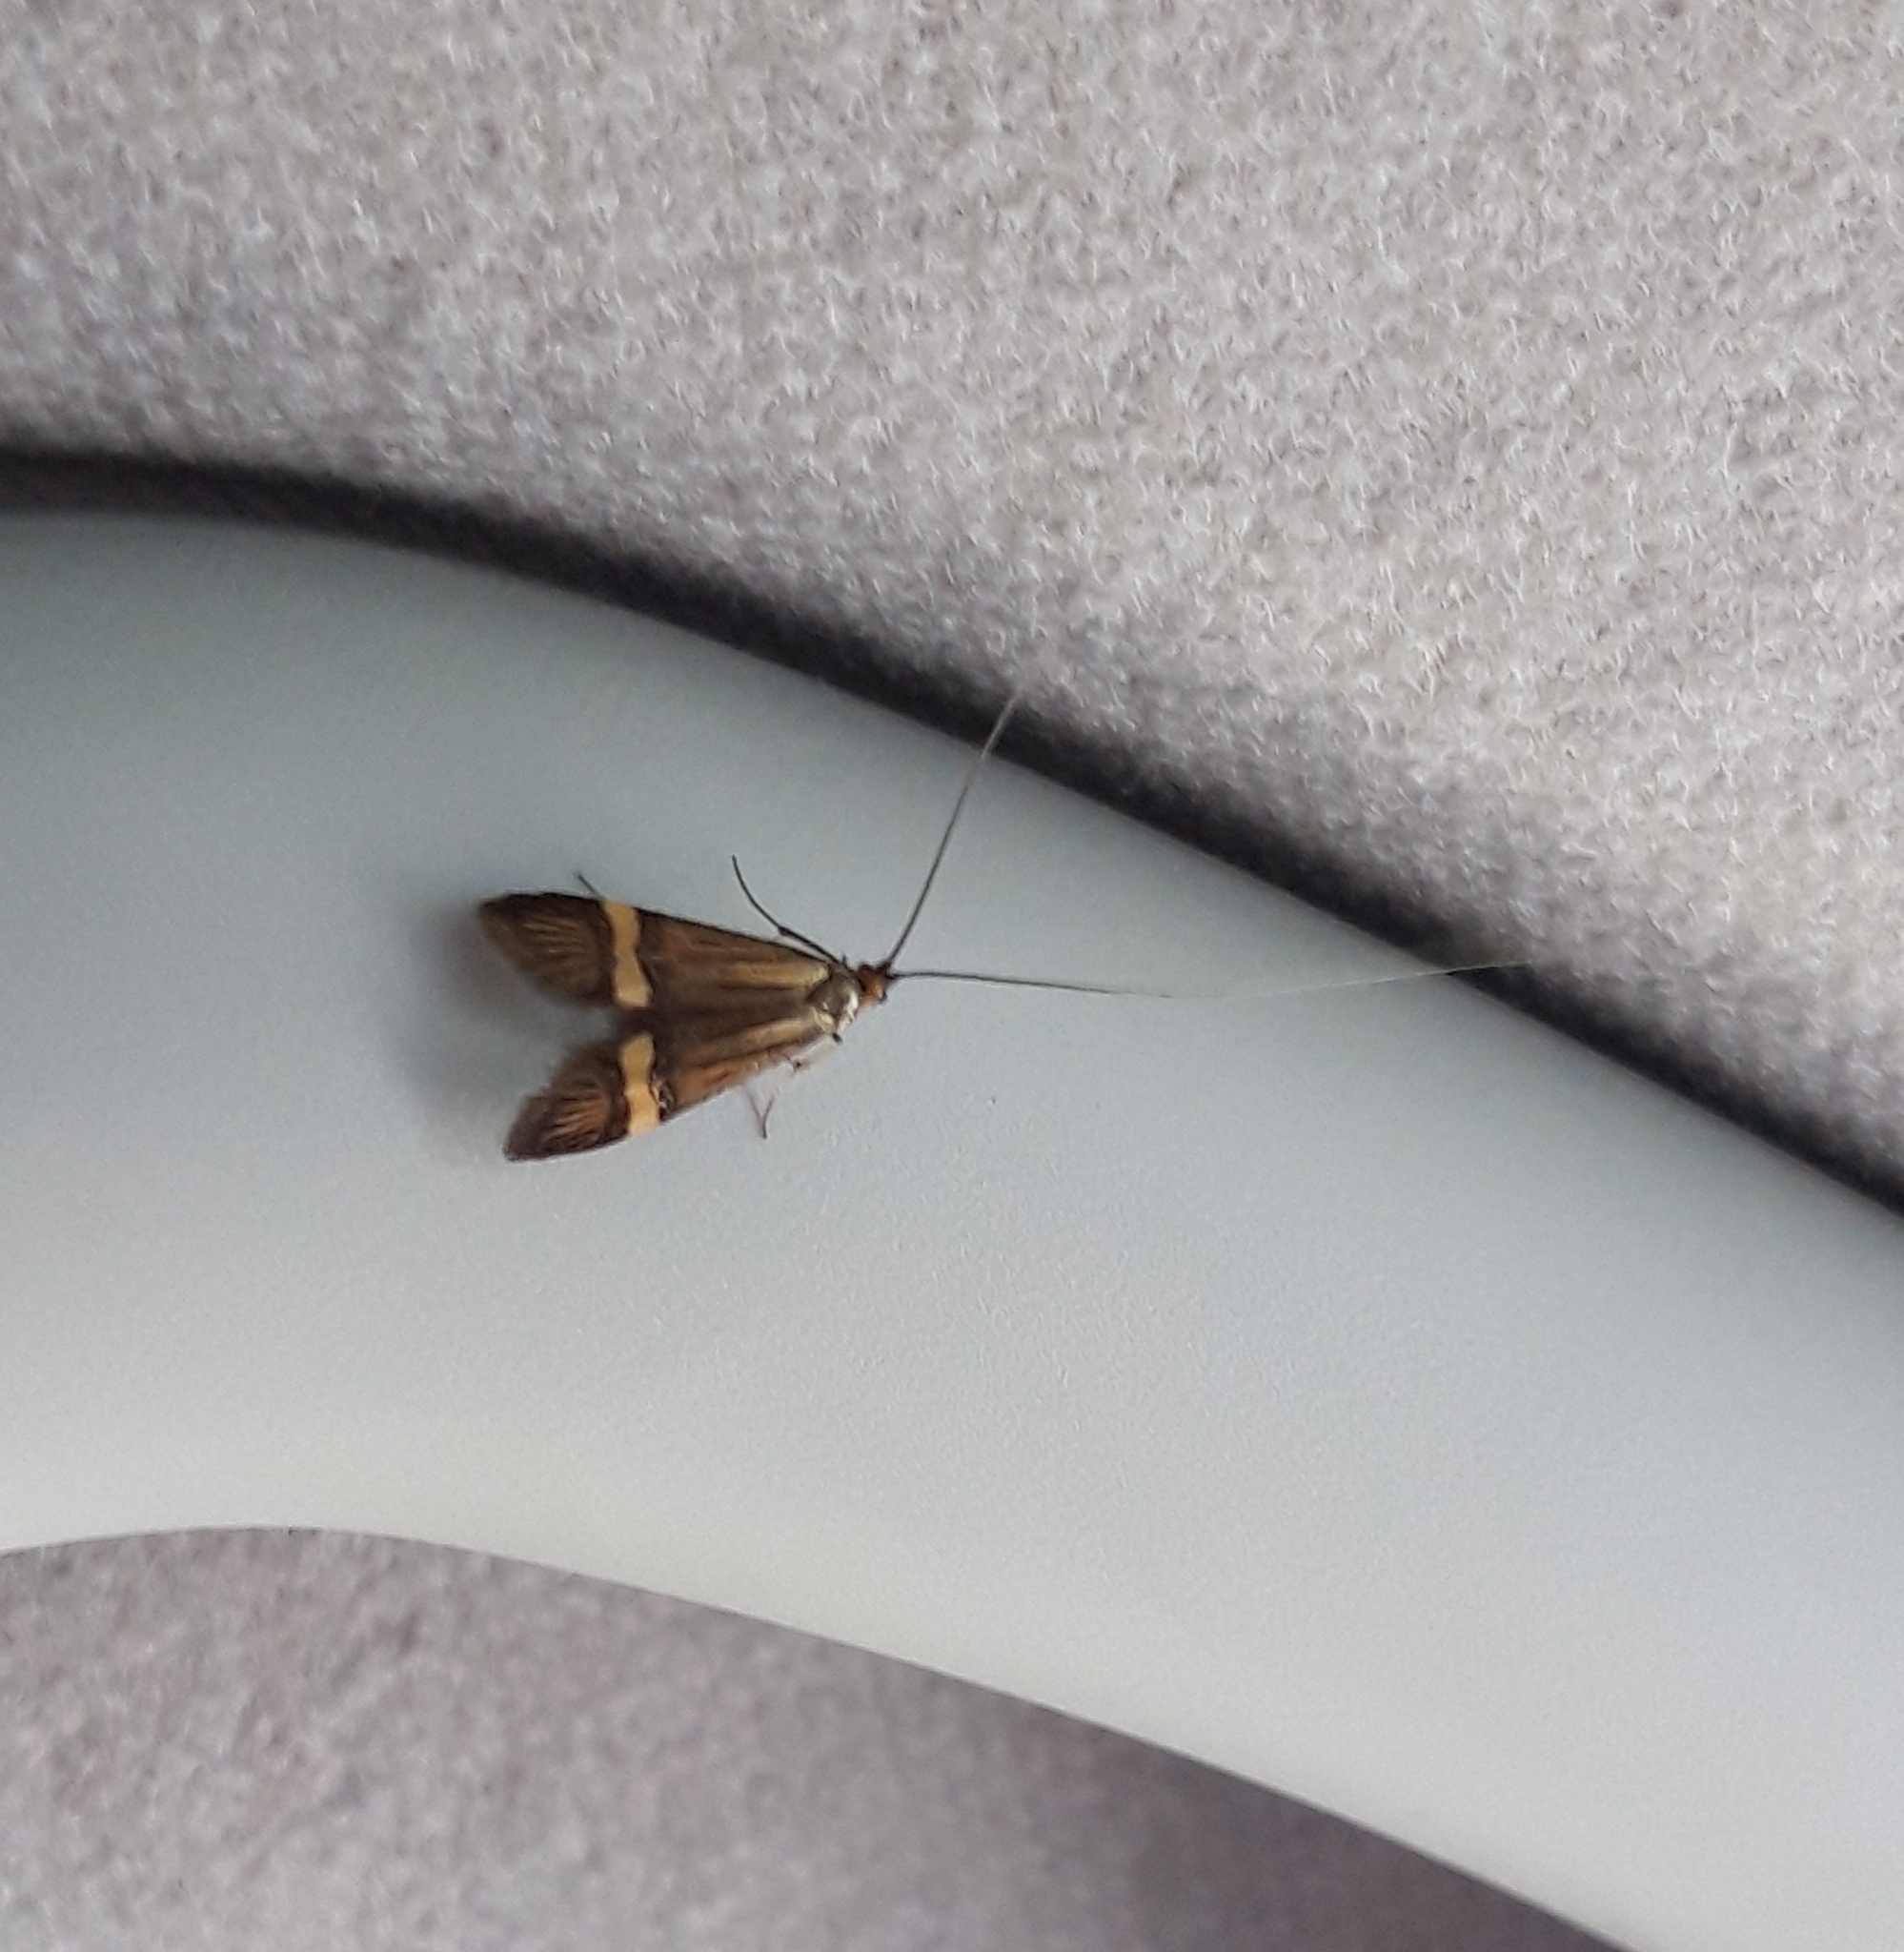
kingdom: Animalia
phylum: Arthropoda
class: Insecta
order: Lepidoptera
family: Adelidae
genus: Nemophora
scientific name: Nemophora degeerella
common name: Yellow-barred long-horn
